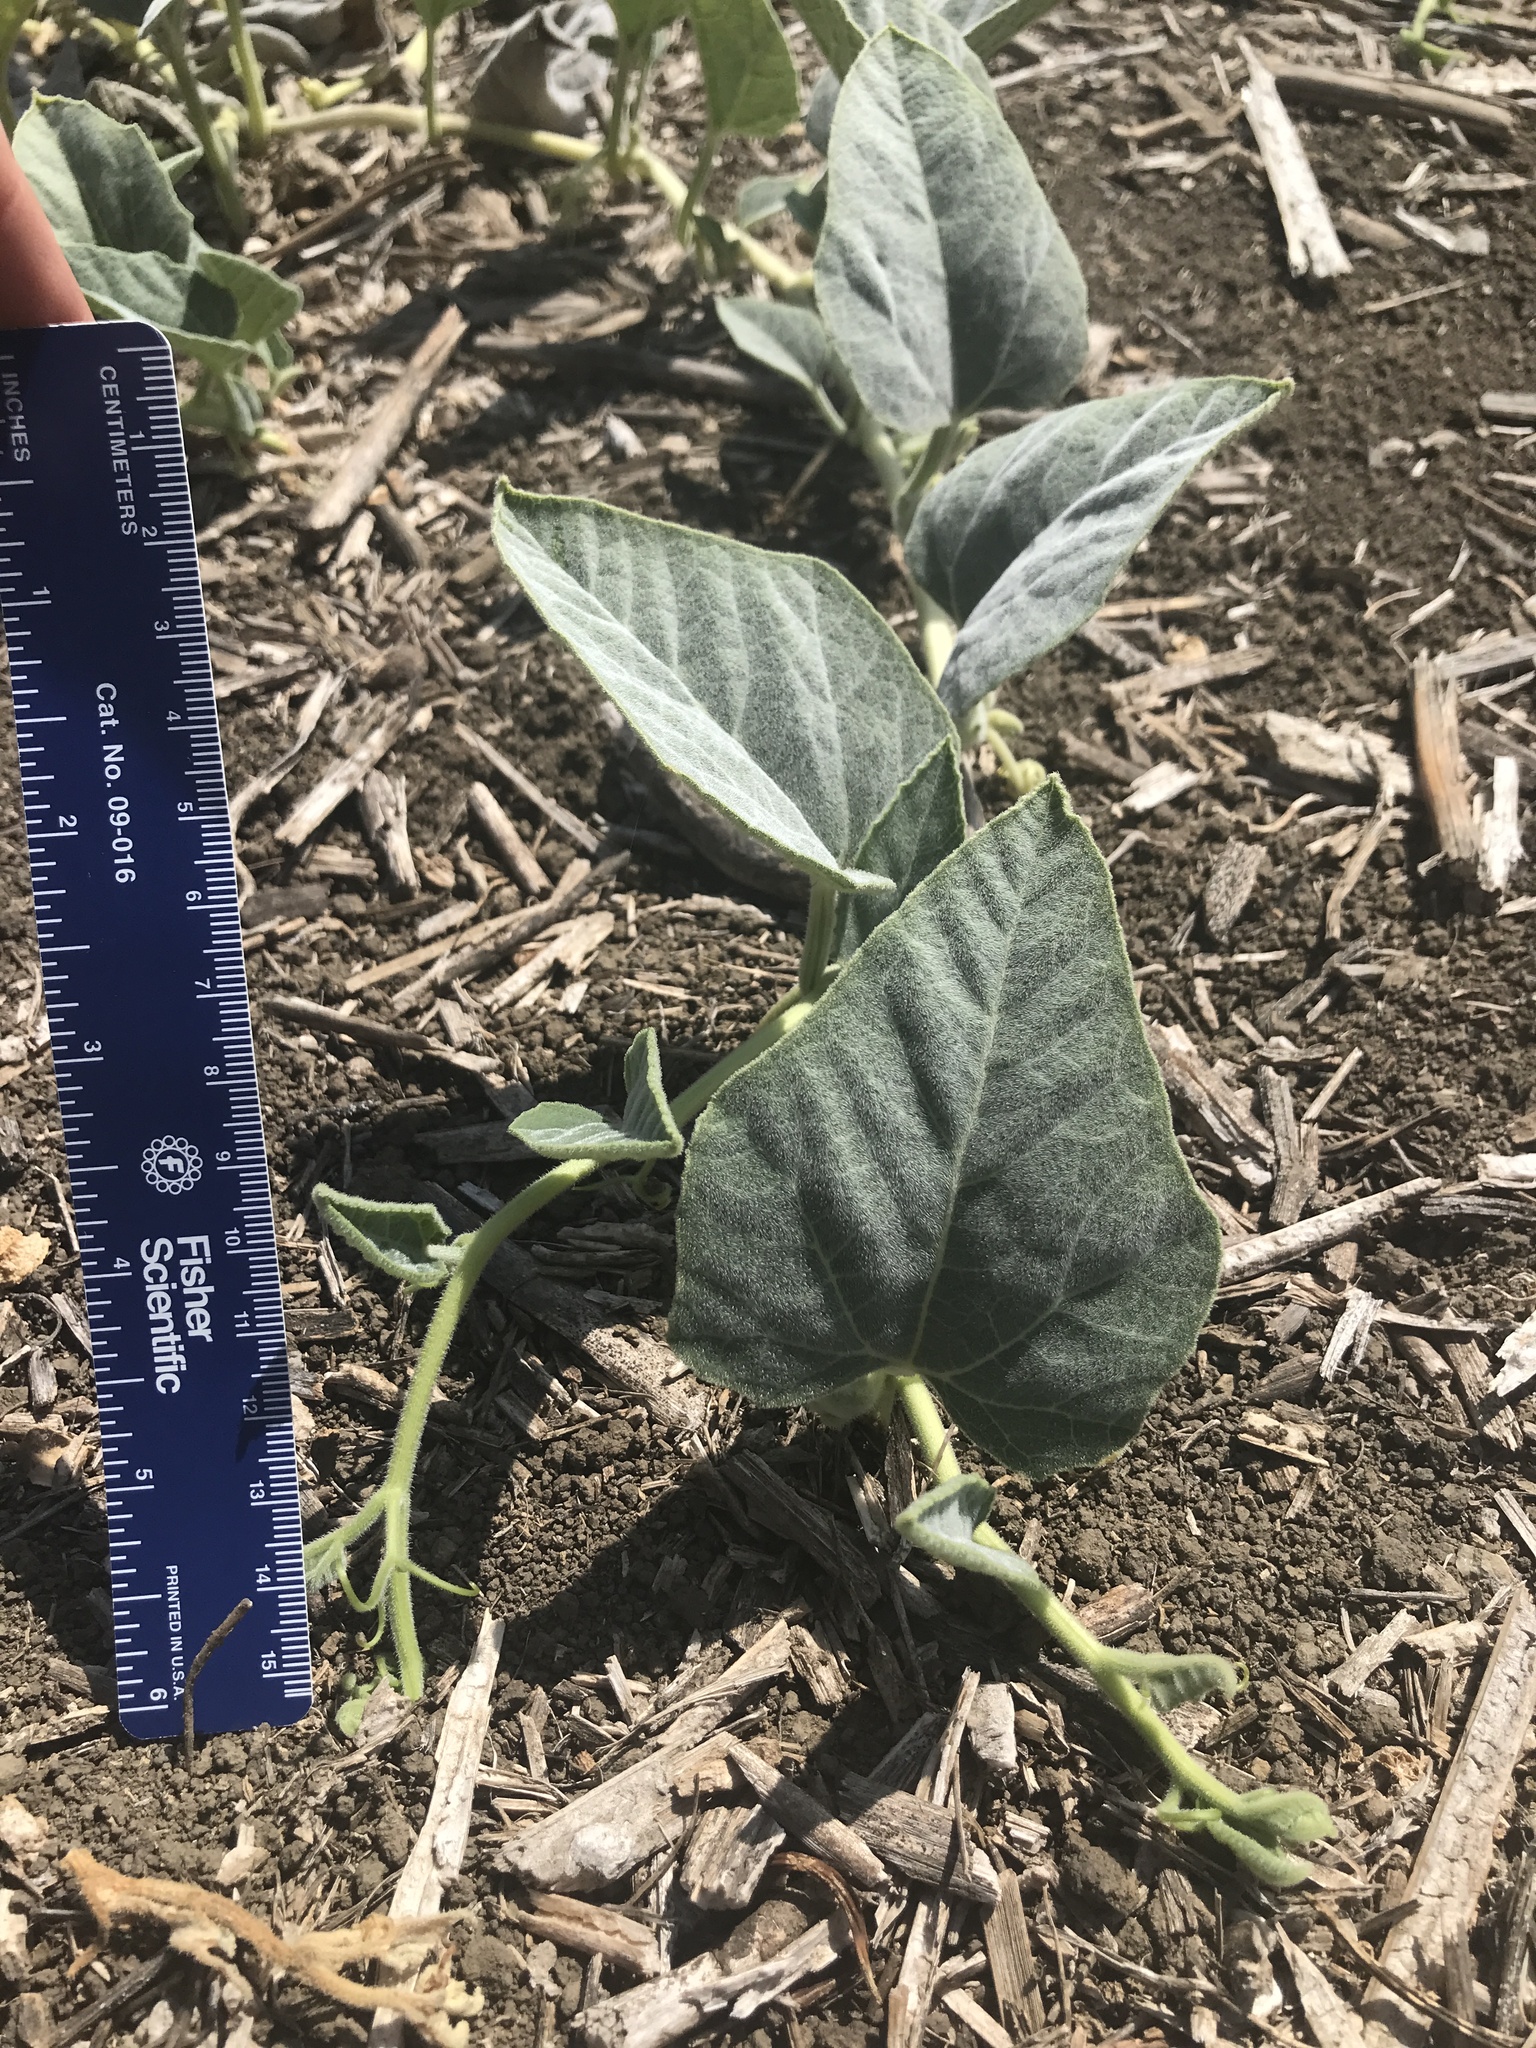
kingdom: Plantae
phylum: Tracheophyta
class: Magnoliopsida
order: Cucurbitales
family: Cucurbitaceae
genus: Cucurbita
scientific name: Cucurbita foetidissima
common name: Buffalo gourd
